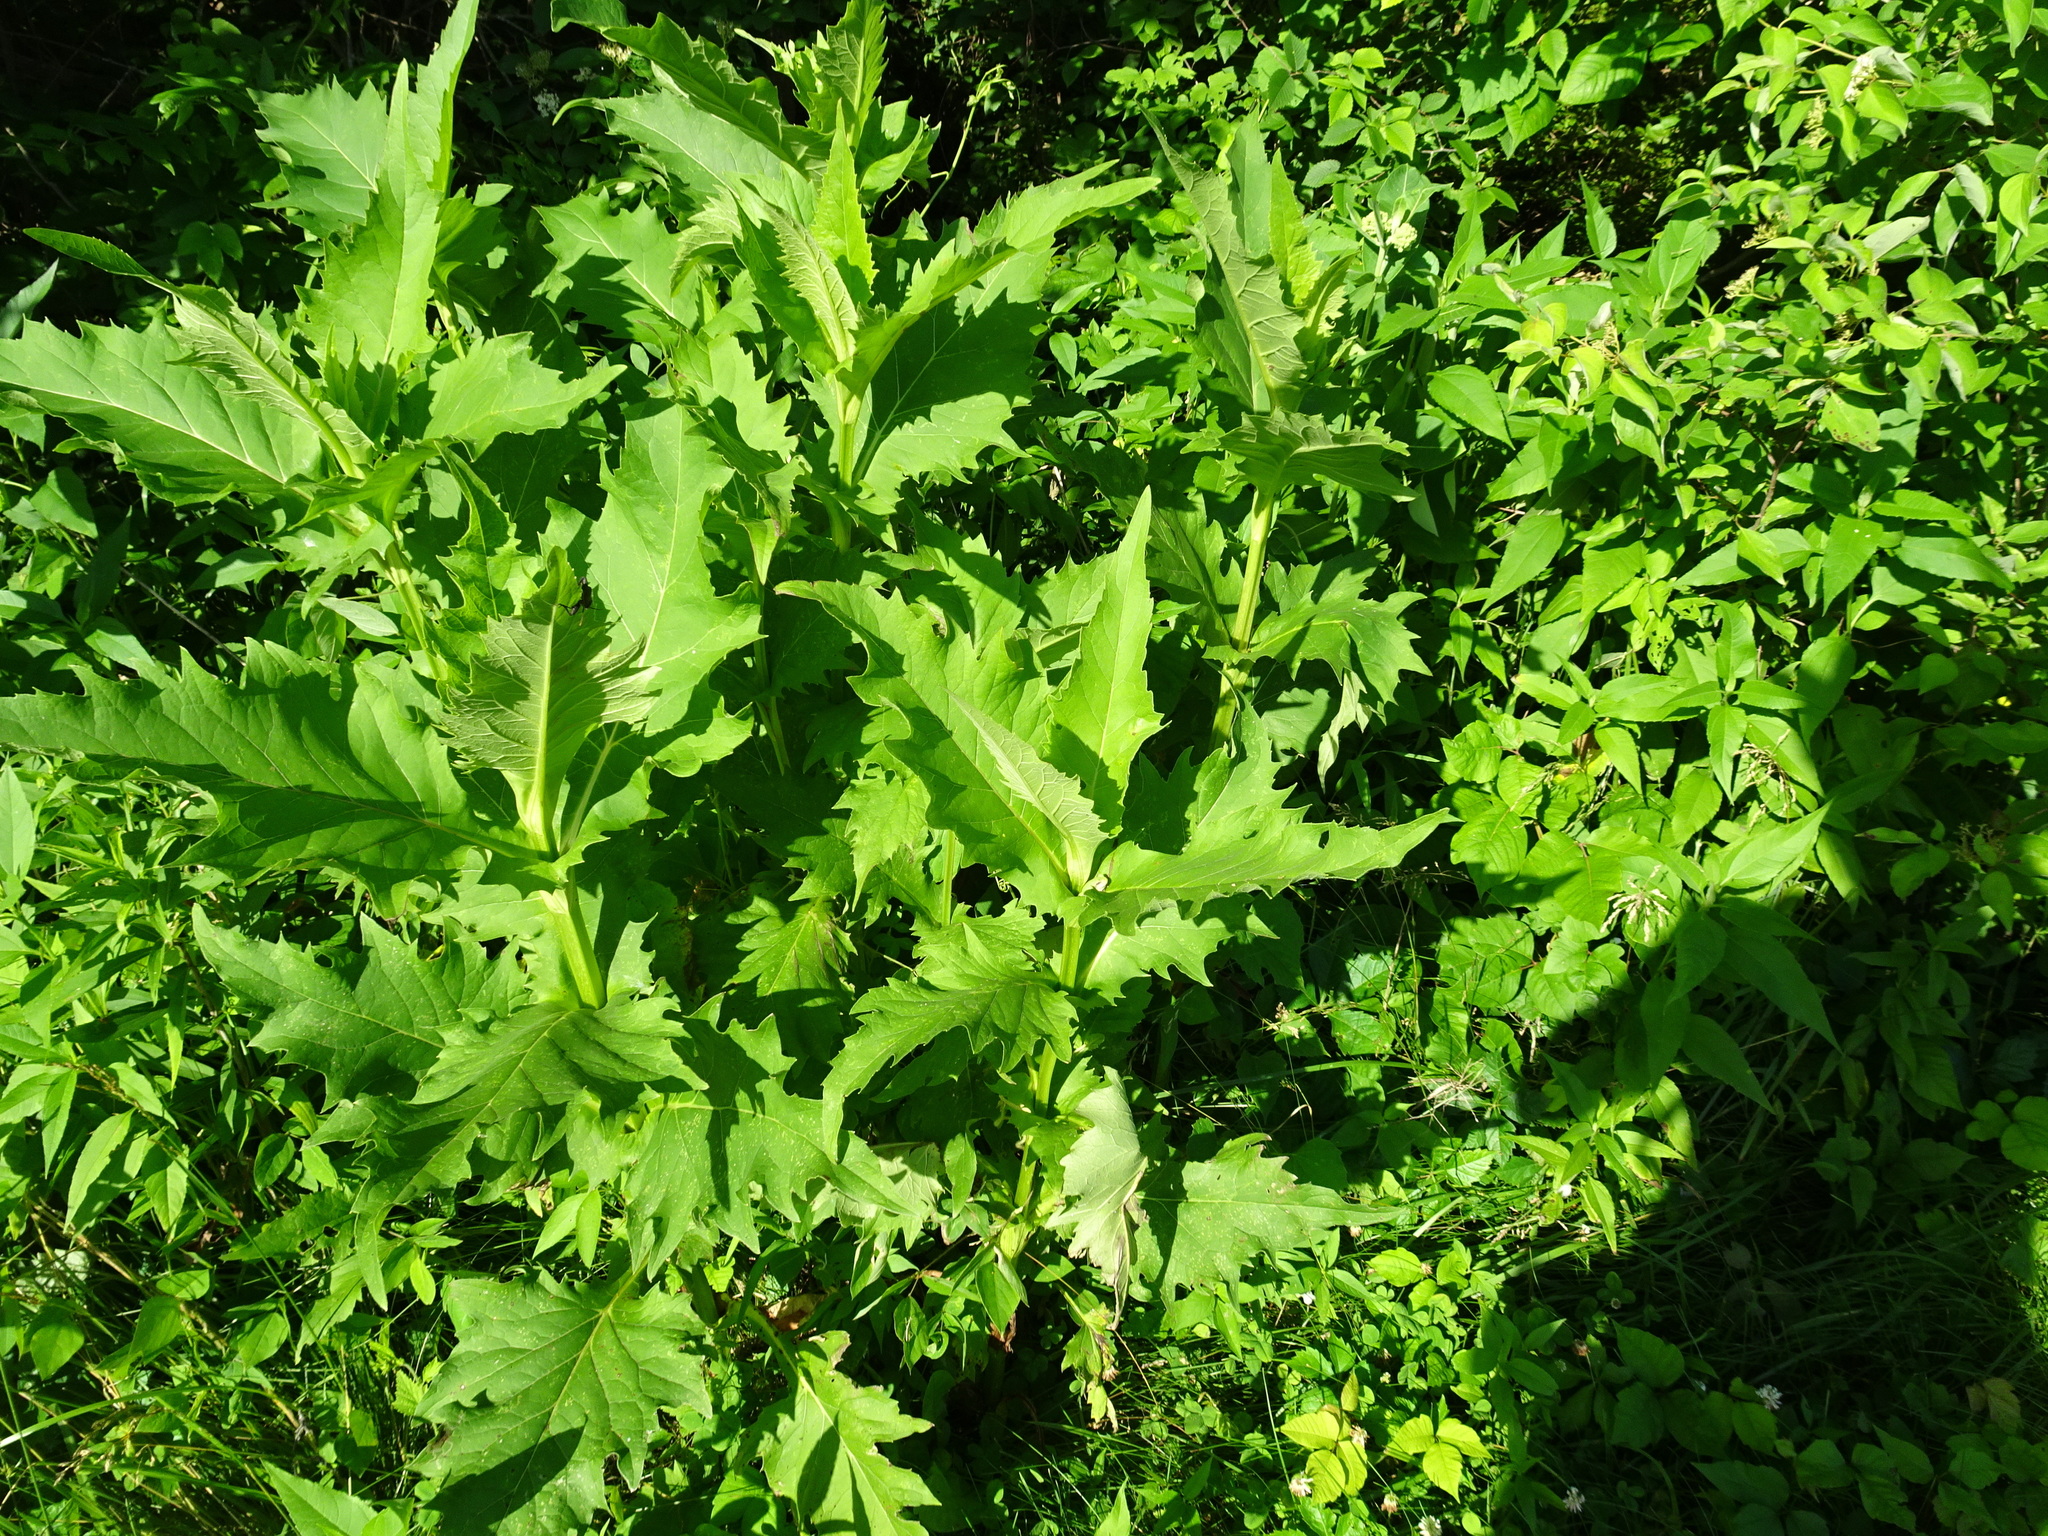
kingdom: Plantae
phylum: Tracheophyta
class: Magnoliopsida
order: Asterales
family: Asteraceae
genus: Silphium
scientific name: Silphium perfoliatum
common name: Cup-plant
